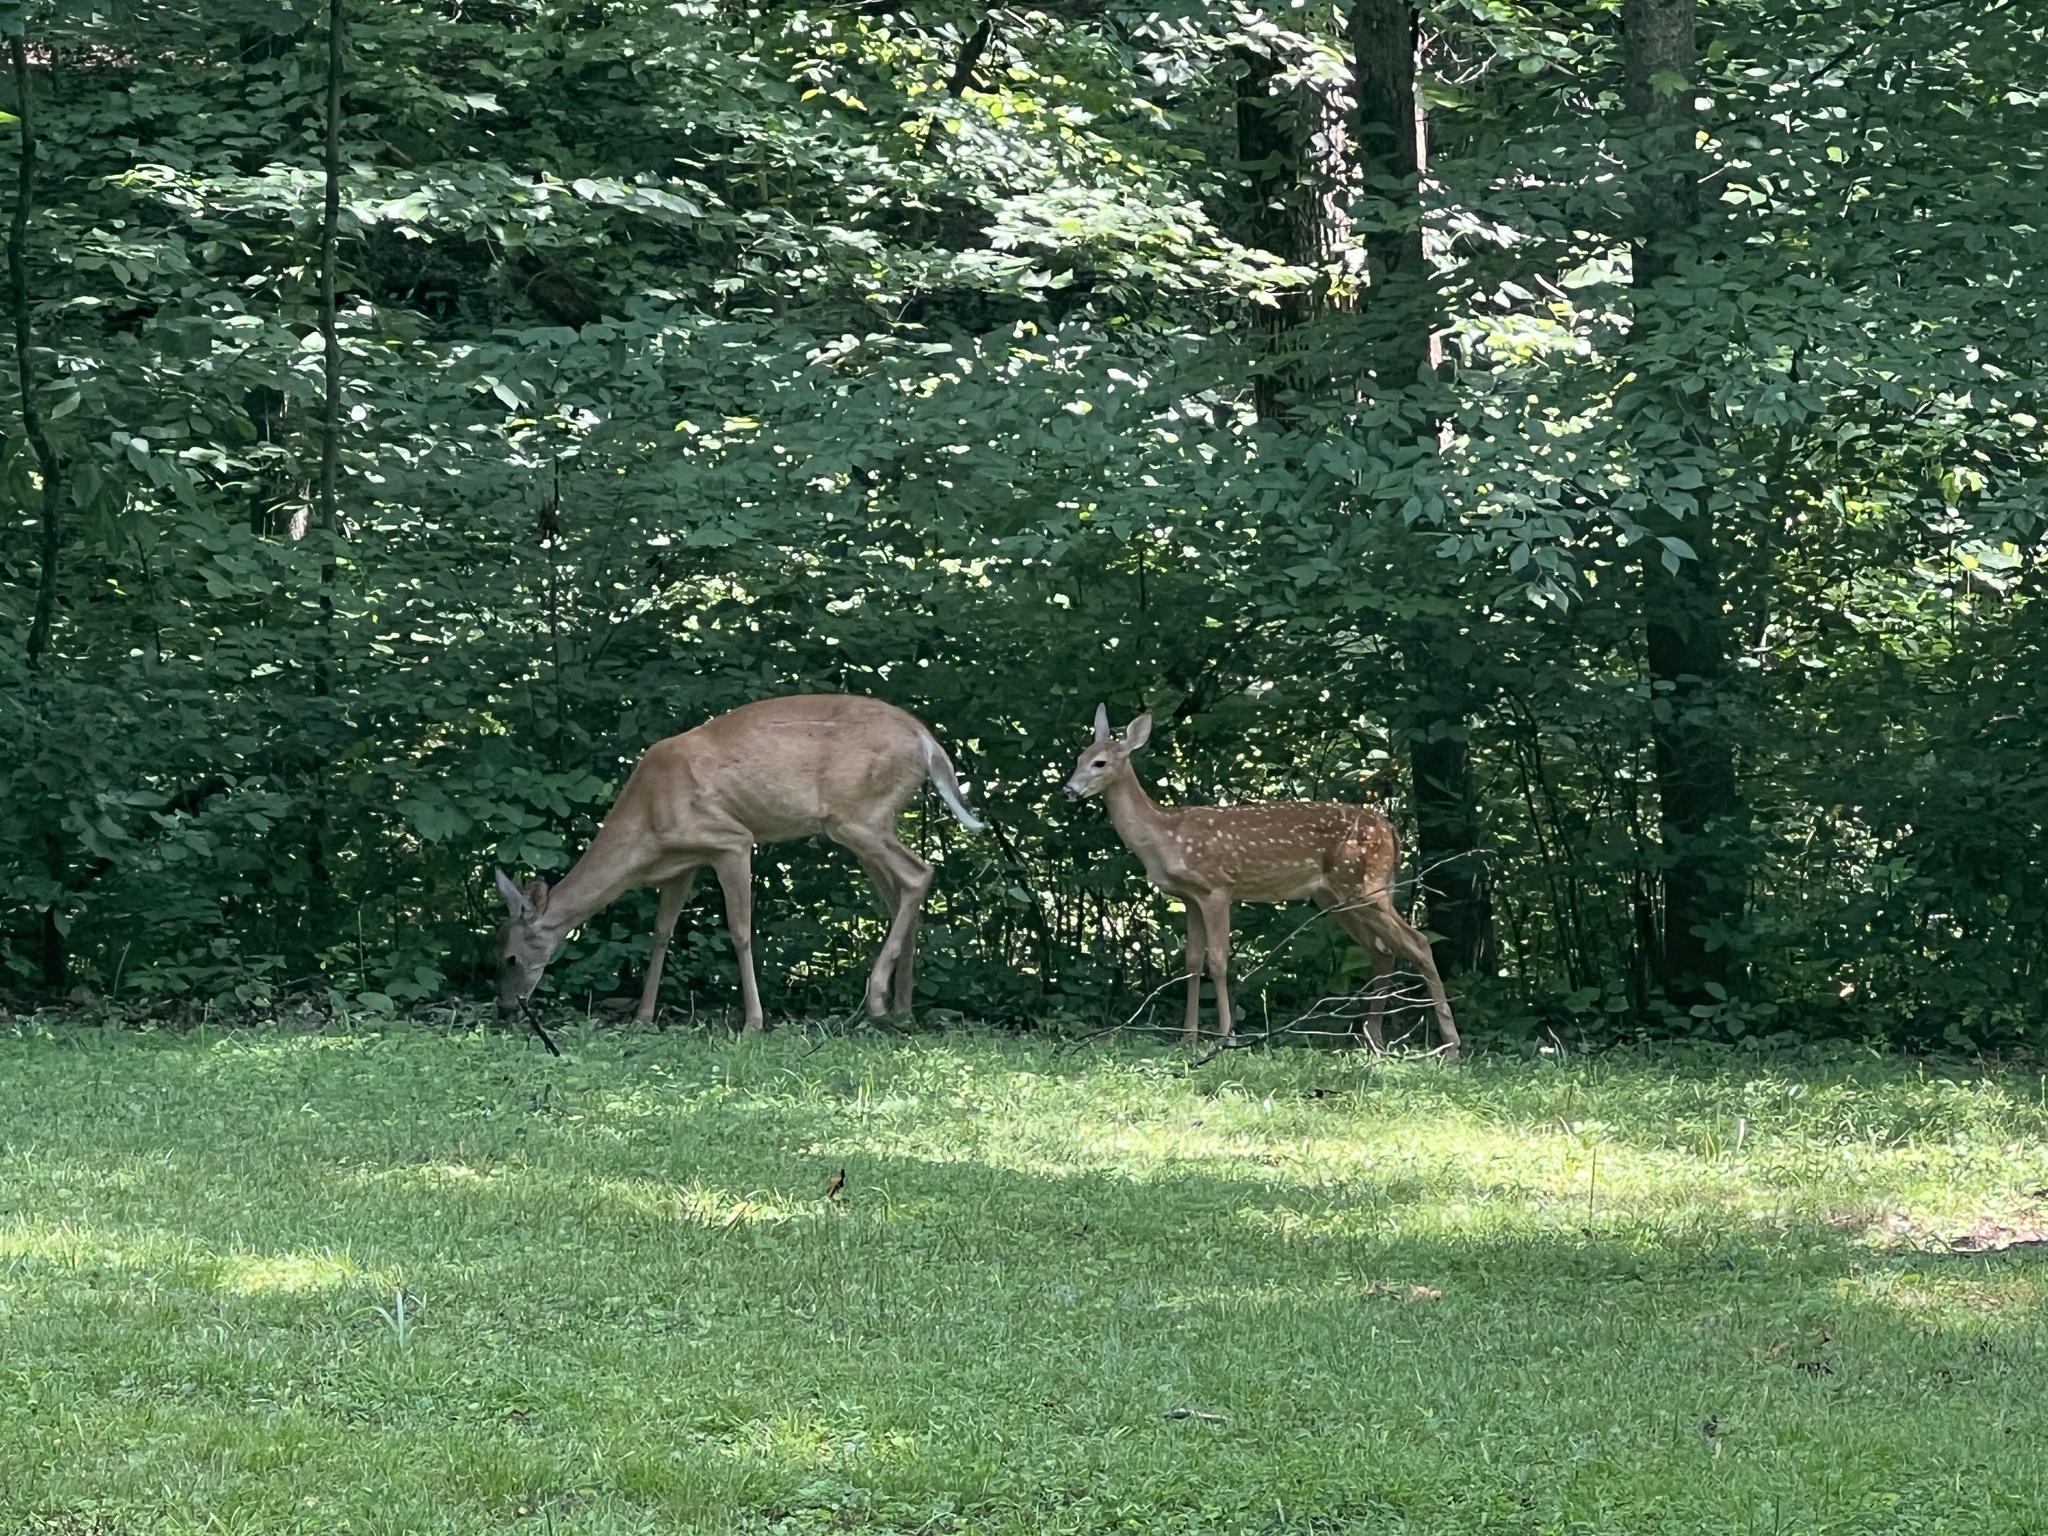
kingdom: Animalia
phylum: Chordata
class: Mammalia
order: Artiodactyla
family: Cervidae
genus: Odocoileus
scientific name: Odocoileus virginianus
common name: White-tailed deer
